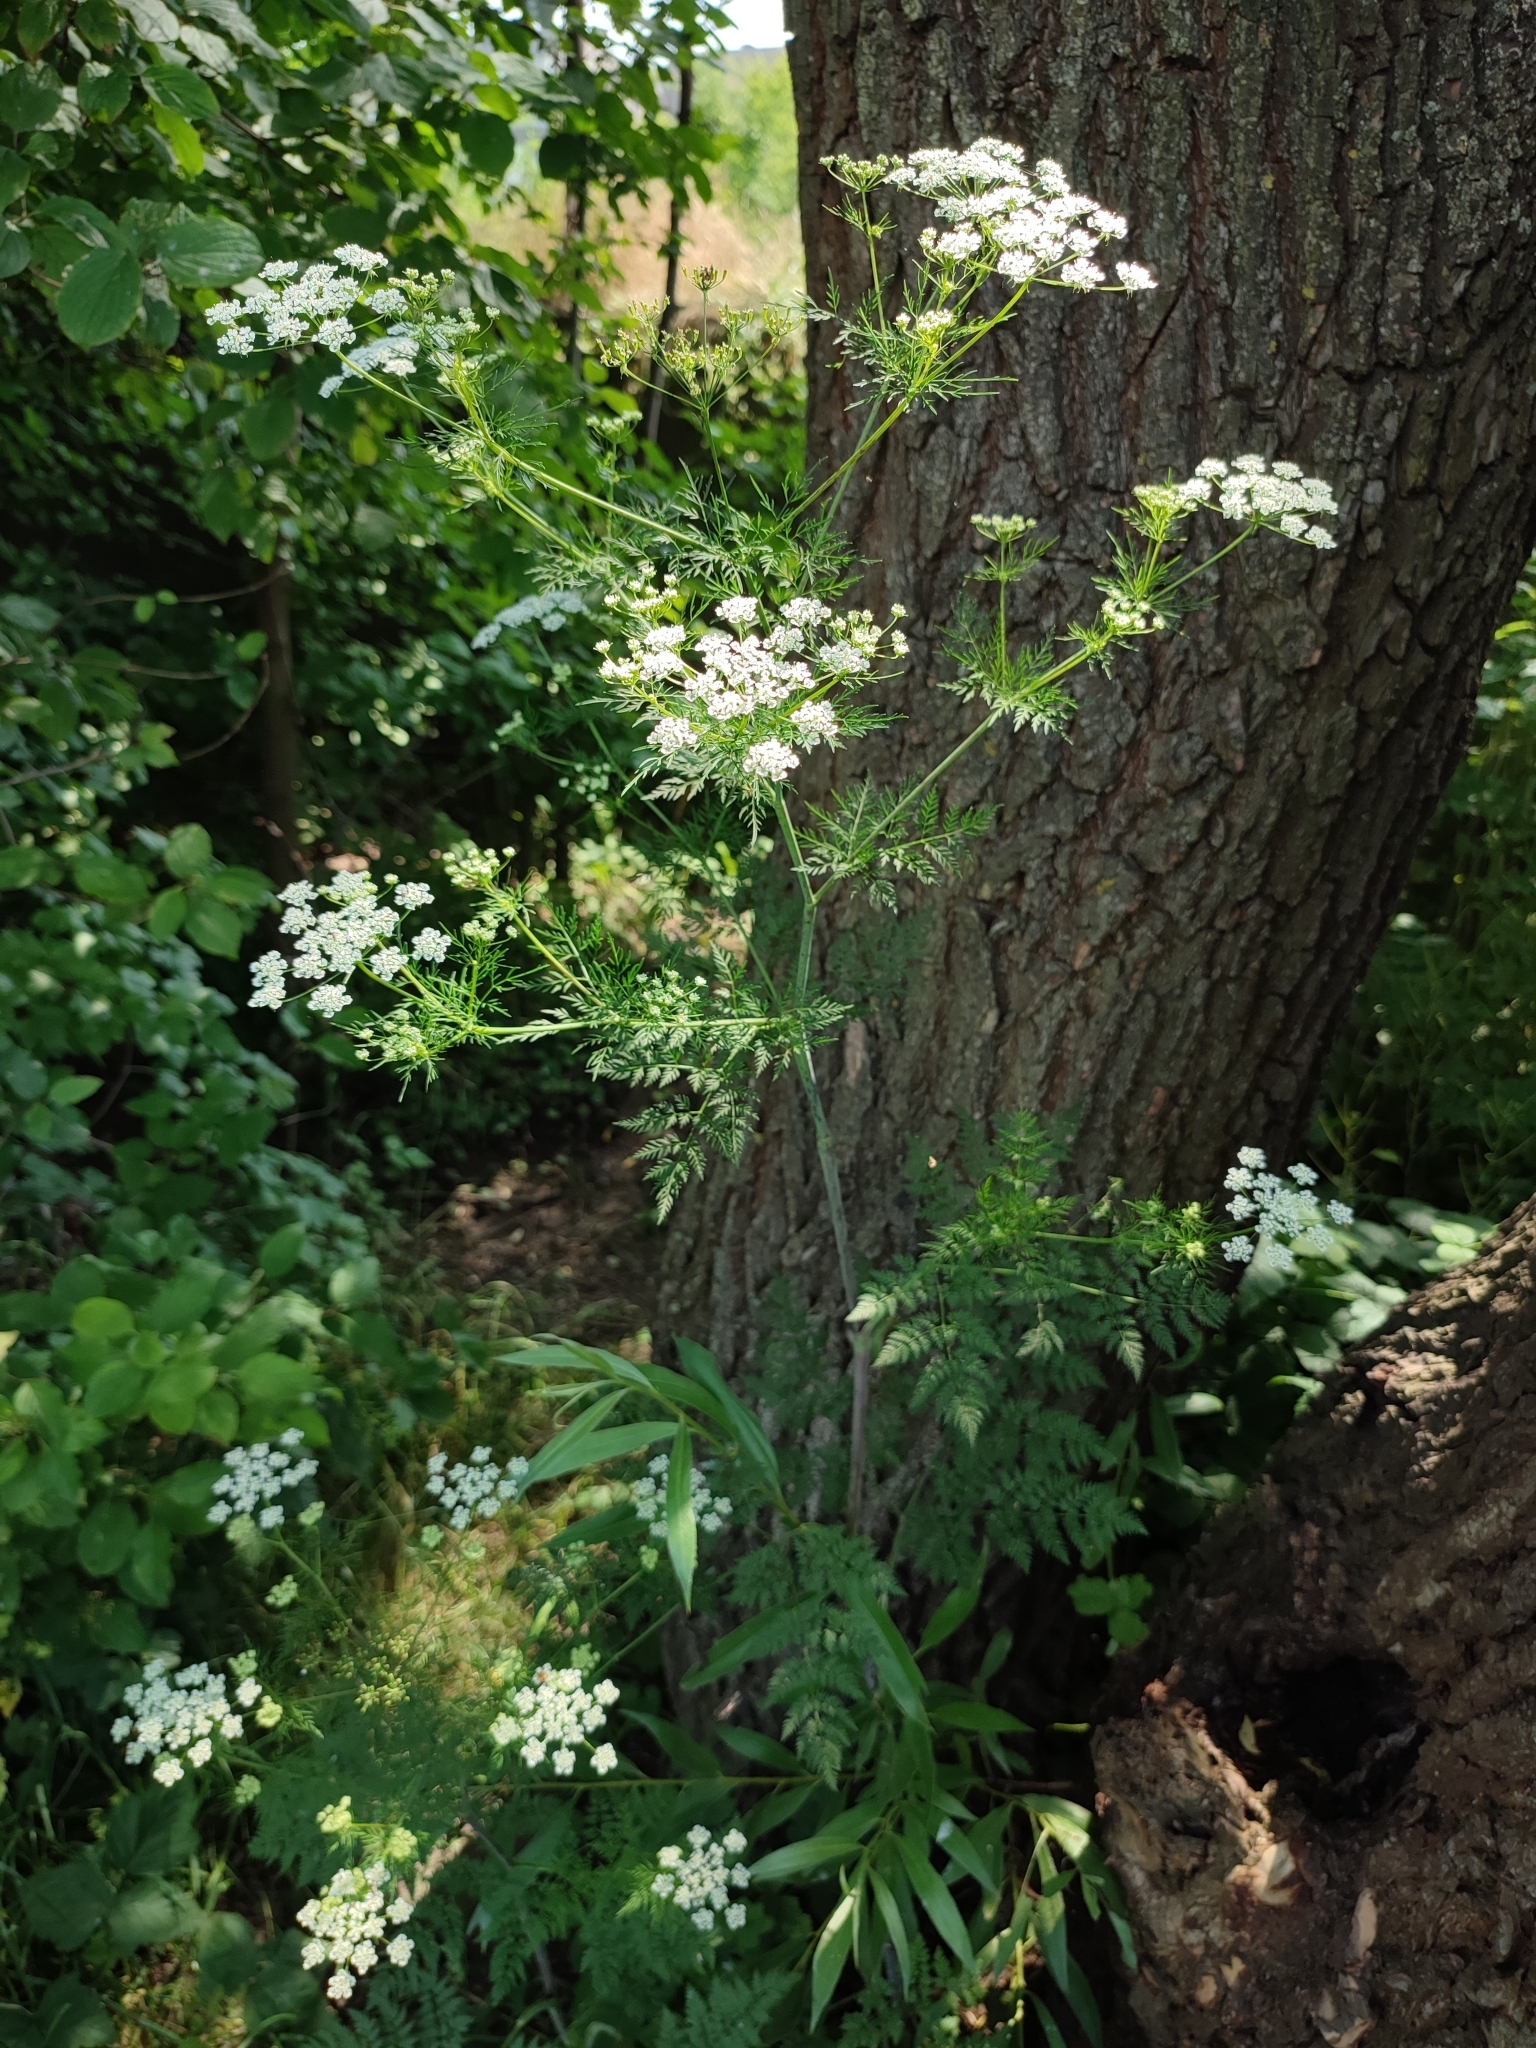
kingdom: Plantae
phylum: Tracheophyta
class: Magnoliopsida
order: Apiales
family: Apiaceae
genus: Chaerophyllum
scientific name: Chaerophyllum bulbosum
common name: Bulbous chervil
